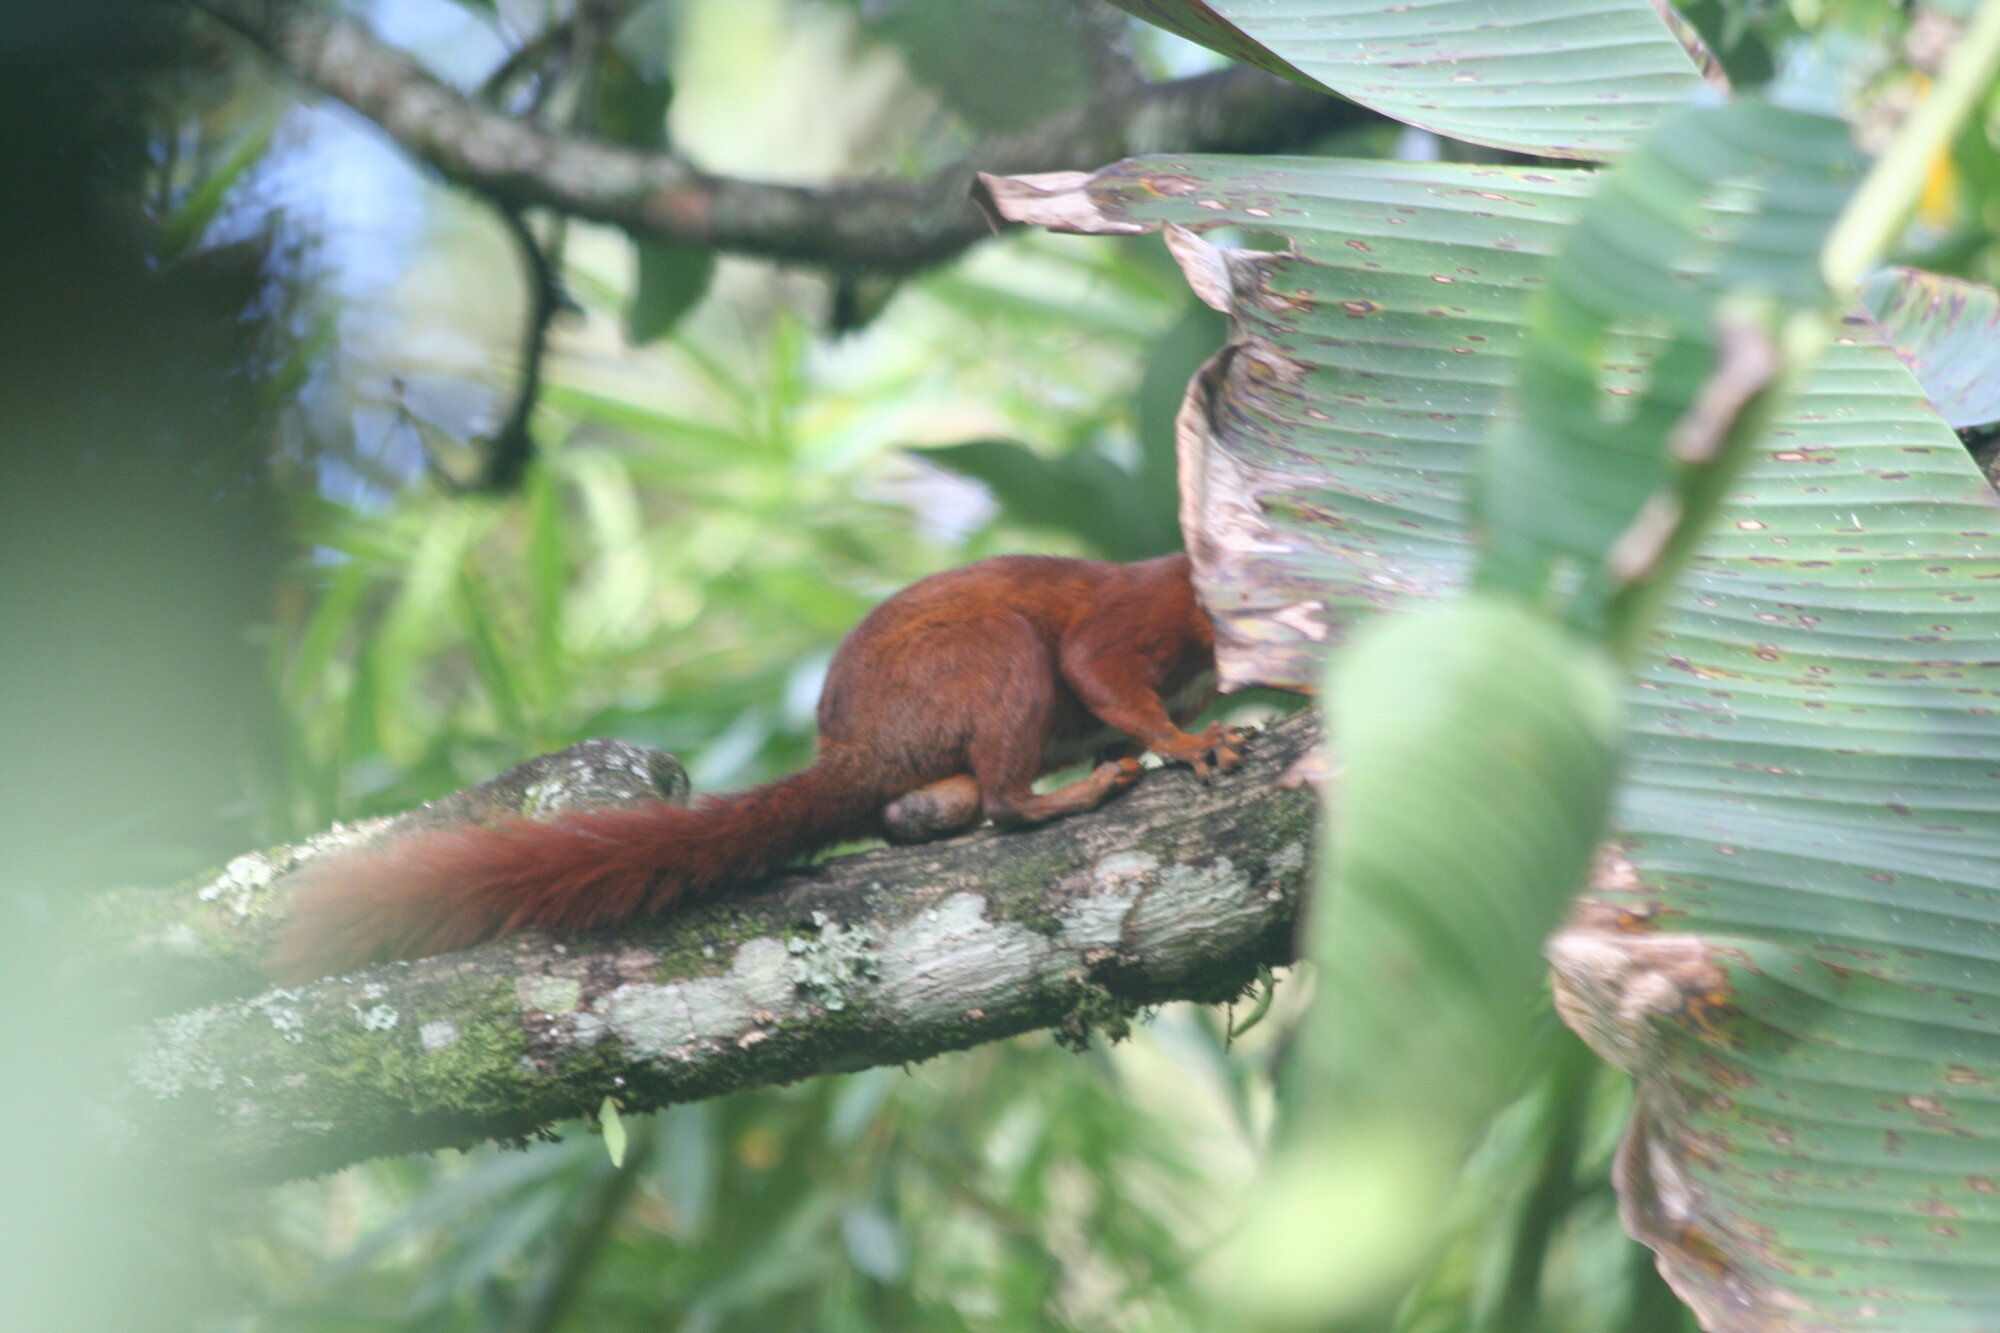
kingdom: Animalia
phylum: Chordata
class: Mammalia
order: Rodentia
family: Sciuridae
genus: Sciurus
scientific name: Sciurus granatensis
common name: Red-tailed squirrel
